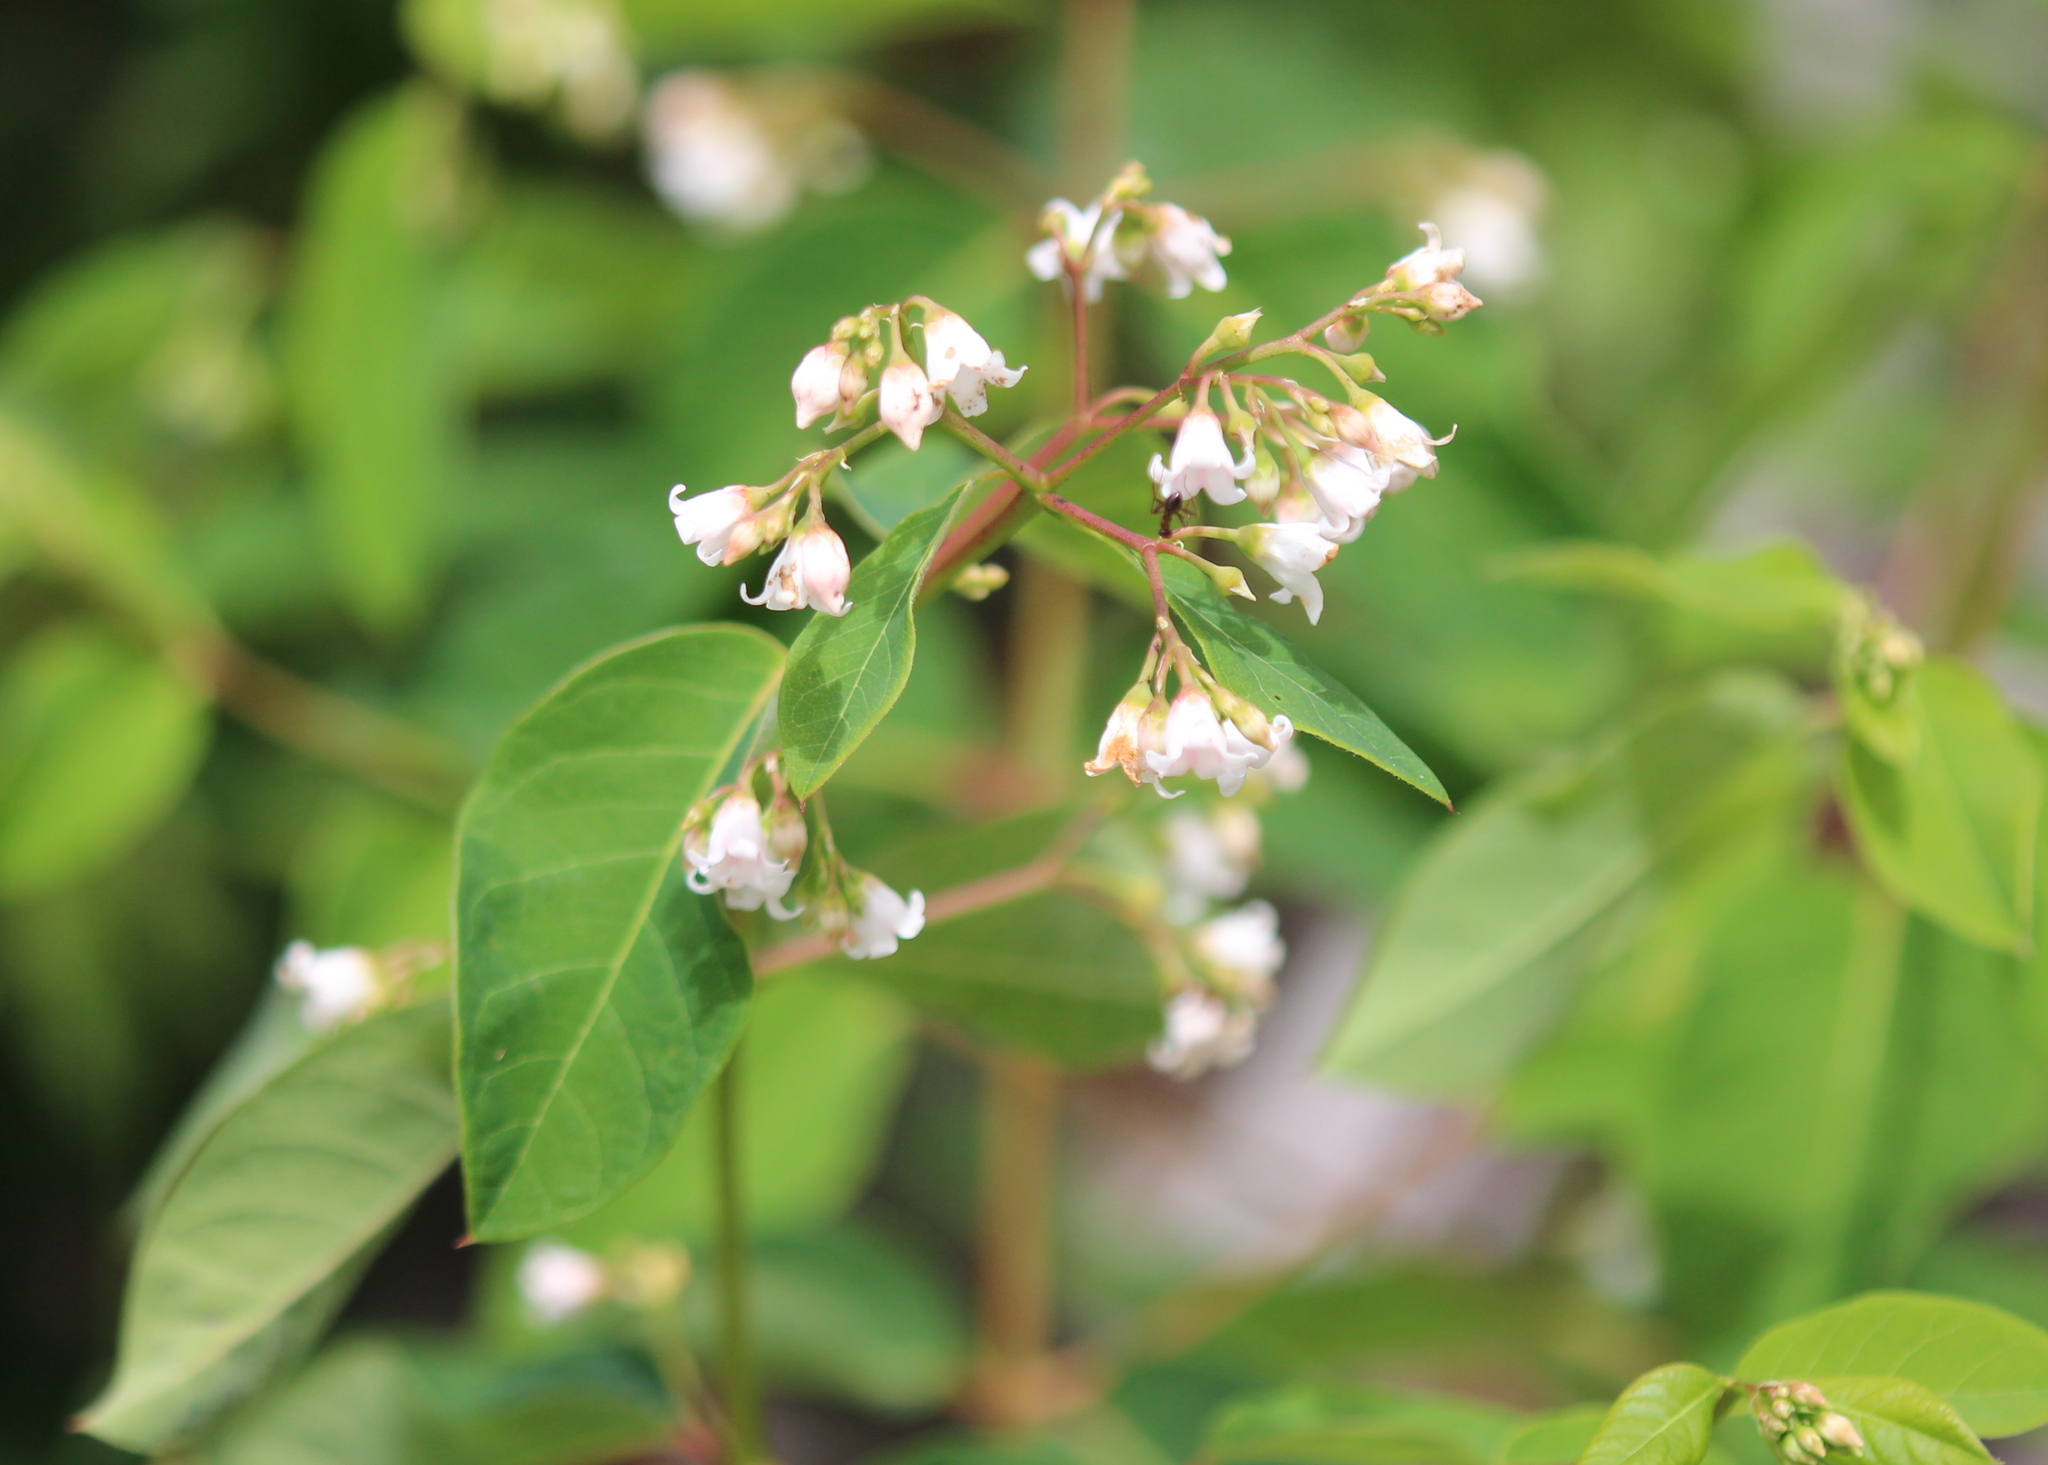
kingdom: Plantae
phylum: Tracheophyta
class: Magnoliopsida
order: Gentianales
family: Apocynaceae
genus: Apocynum
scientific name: Apocynum androsaemifolium
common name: Spreading dogbane
